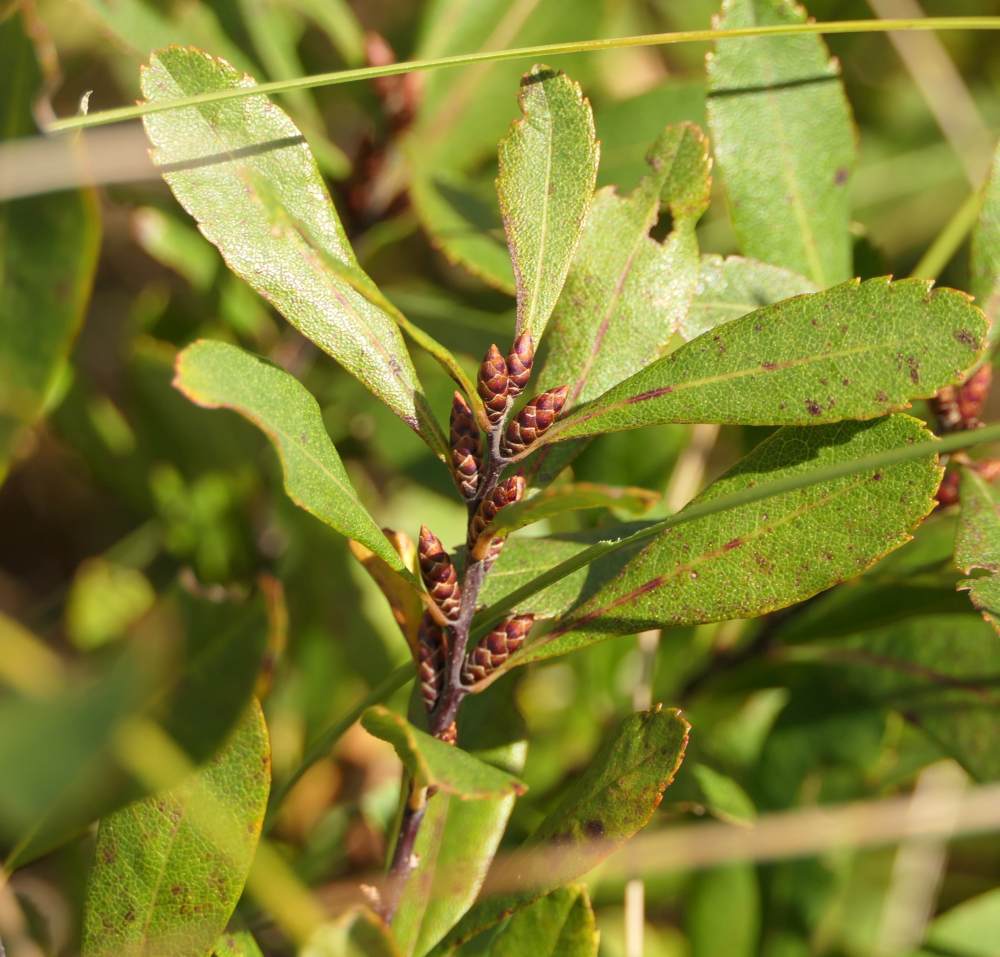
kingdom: Plantae
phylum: Tracheophyta
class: Magnoliopsida
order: Fagales
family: Myricaceae
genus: Myrica
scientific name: Myrica gale
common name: Sweet gale
